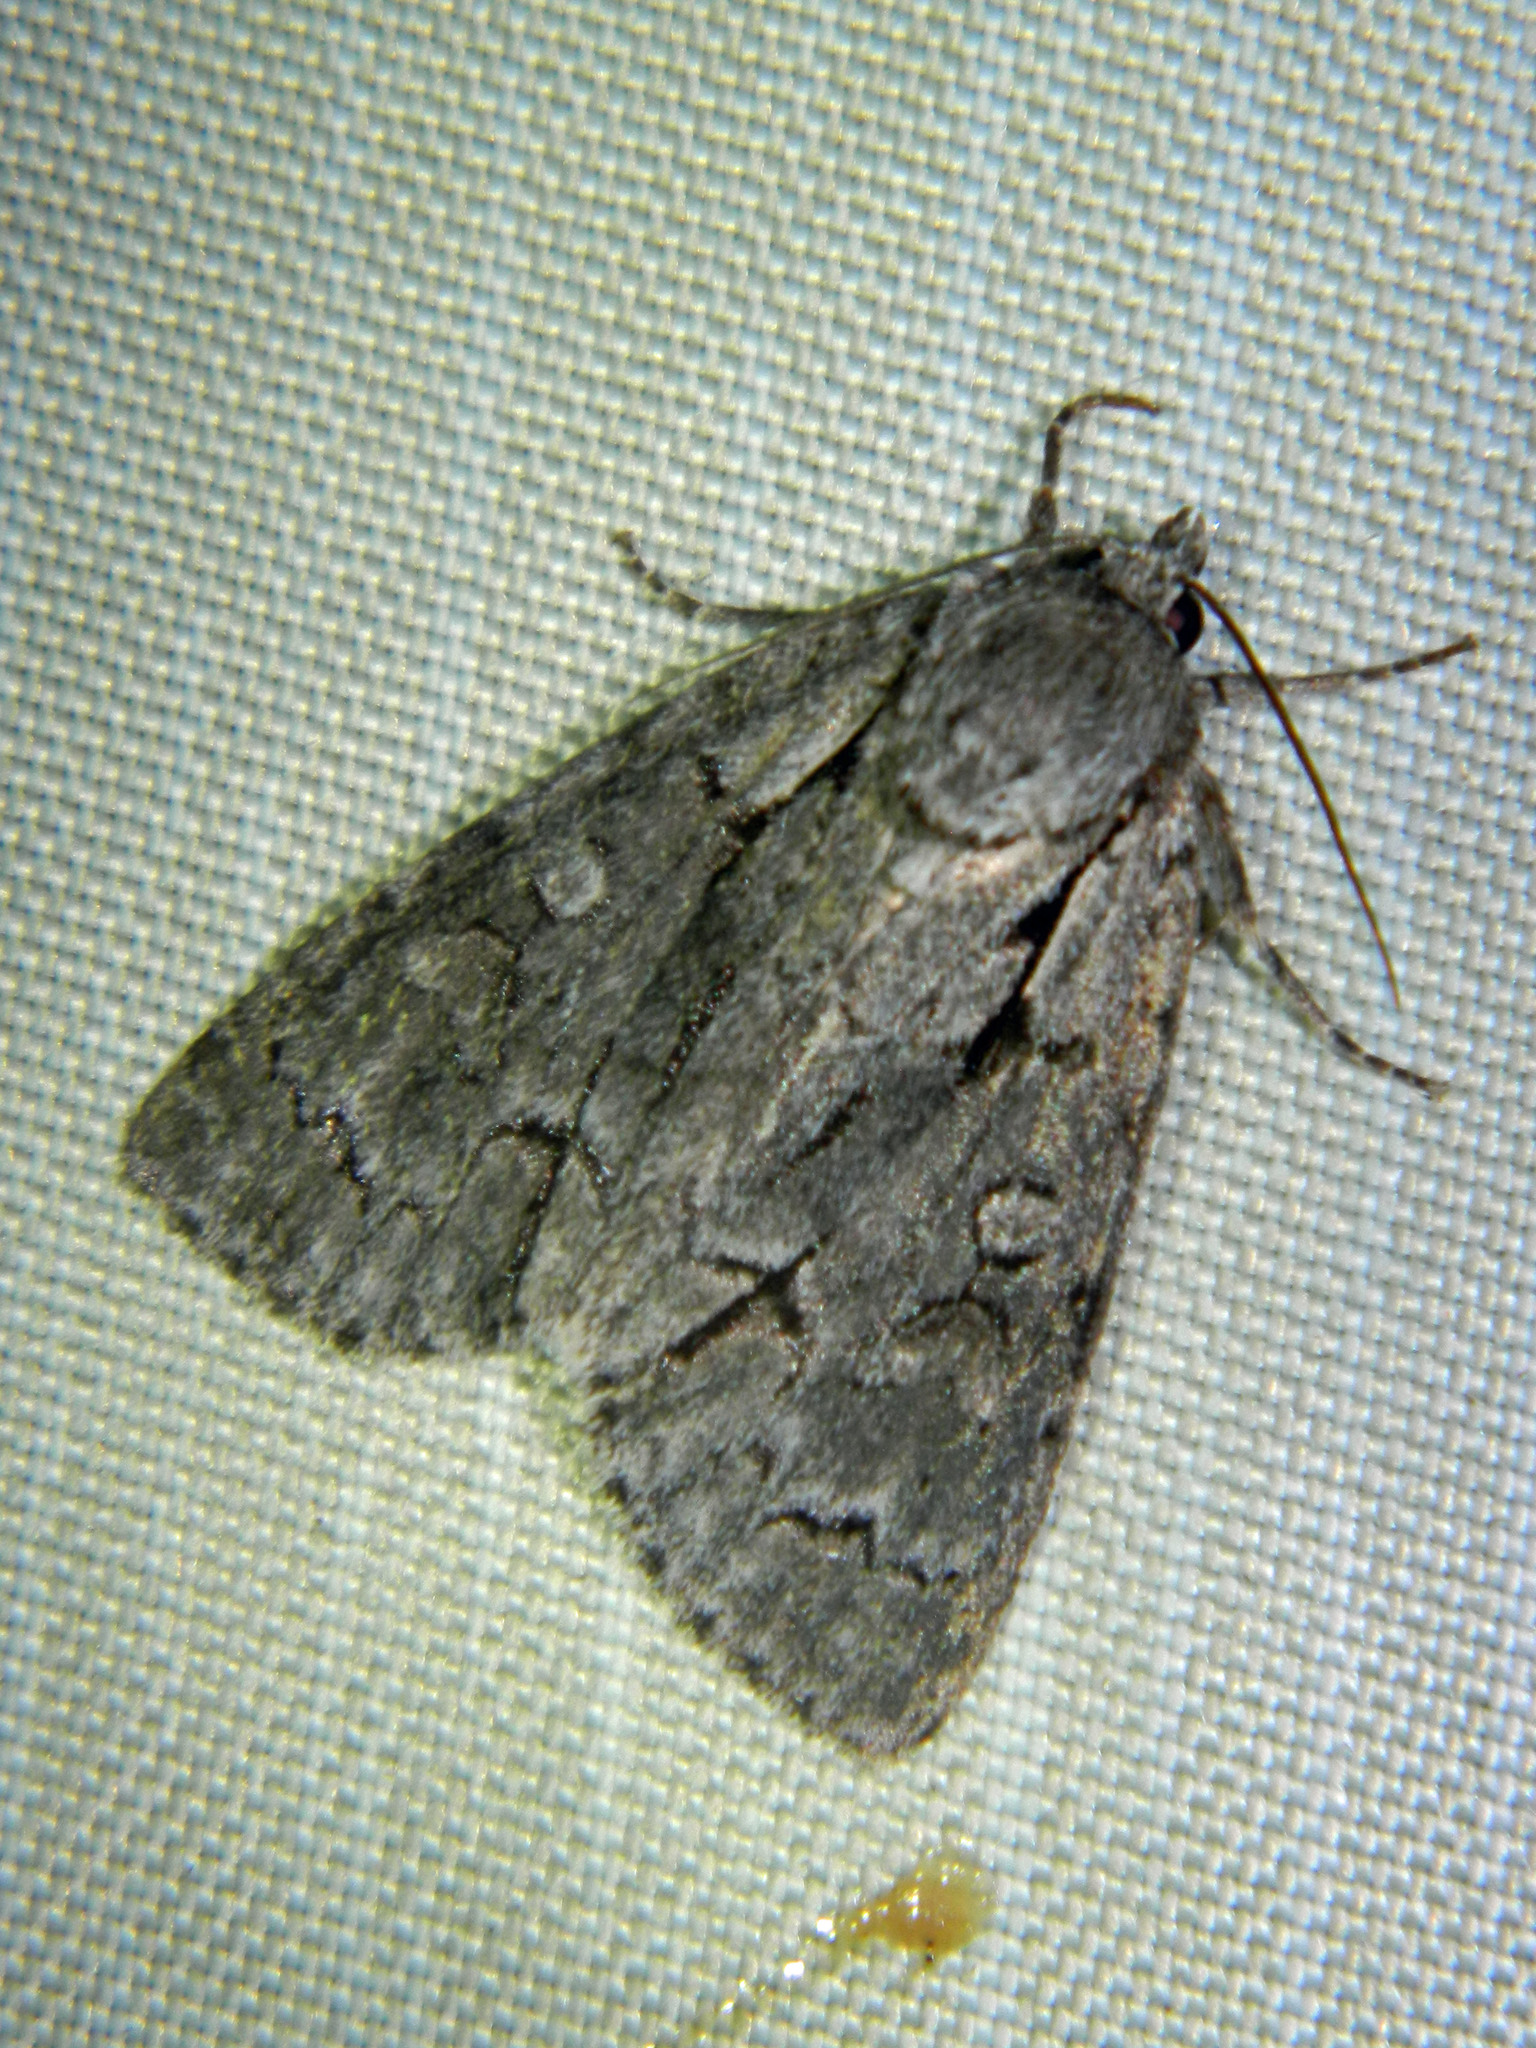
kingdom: Animalia
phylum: Arthropoda
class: Insecta
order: Lepidoptera
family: Noctuidae
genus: Acronicta
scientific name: Acronicta grisea
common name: Gray dagger
